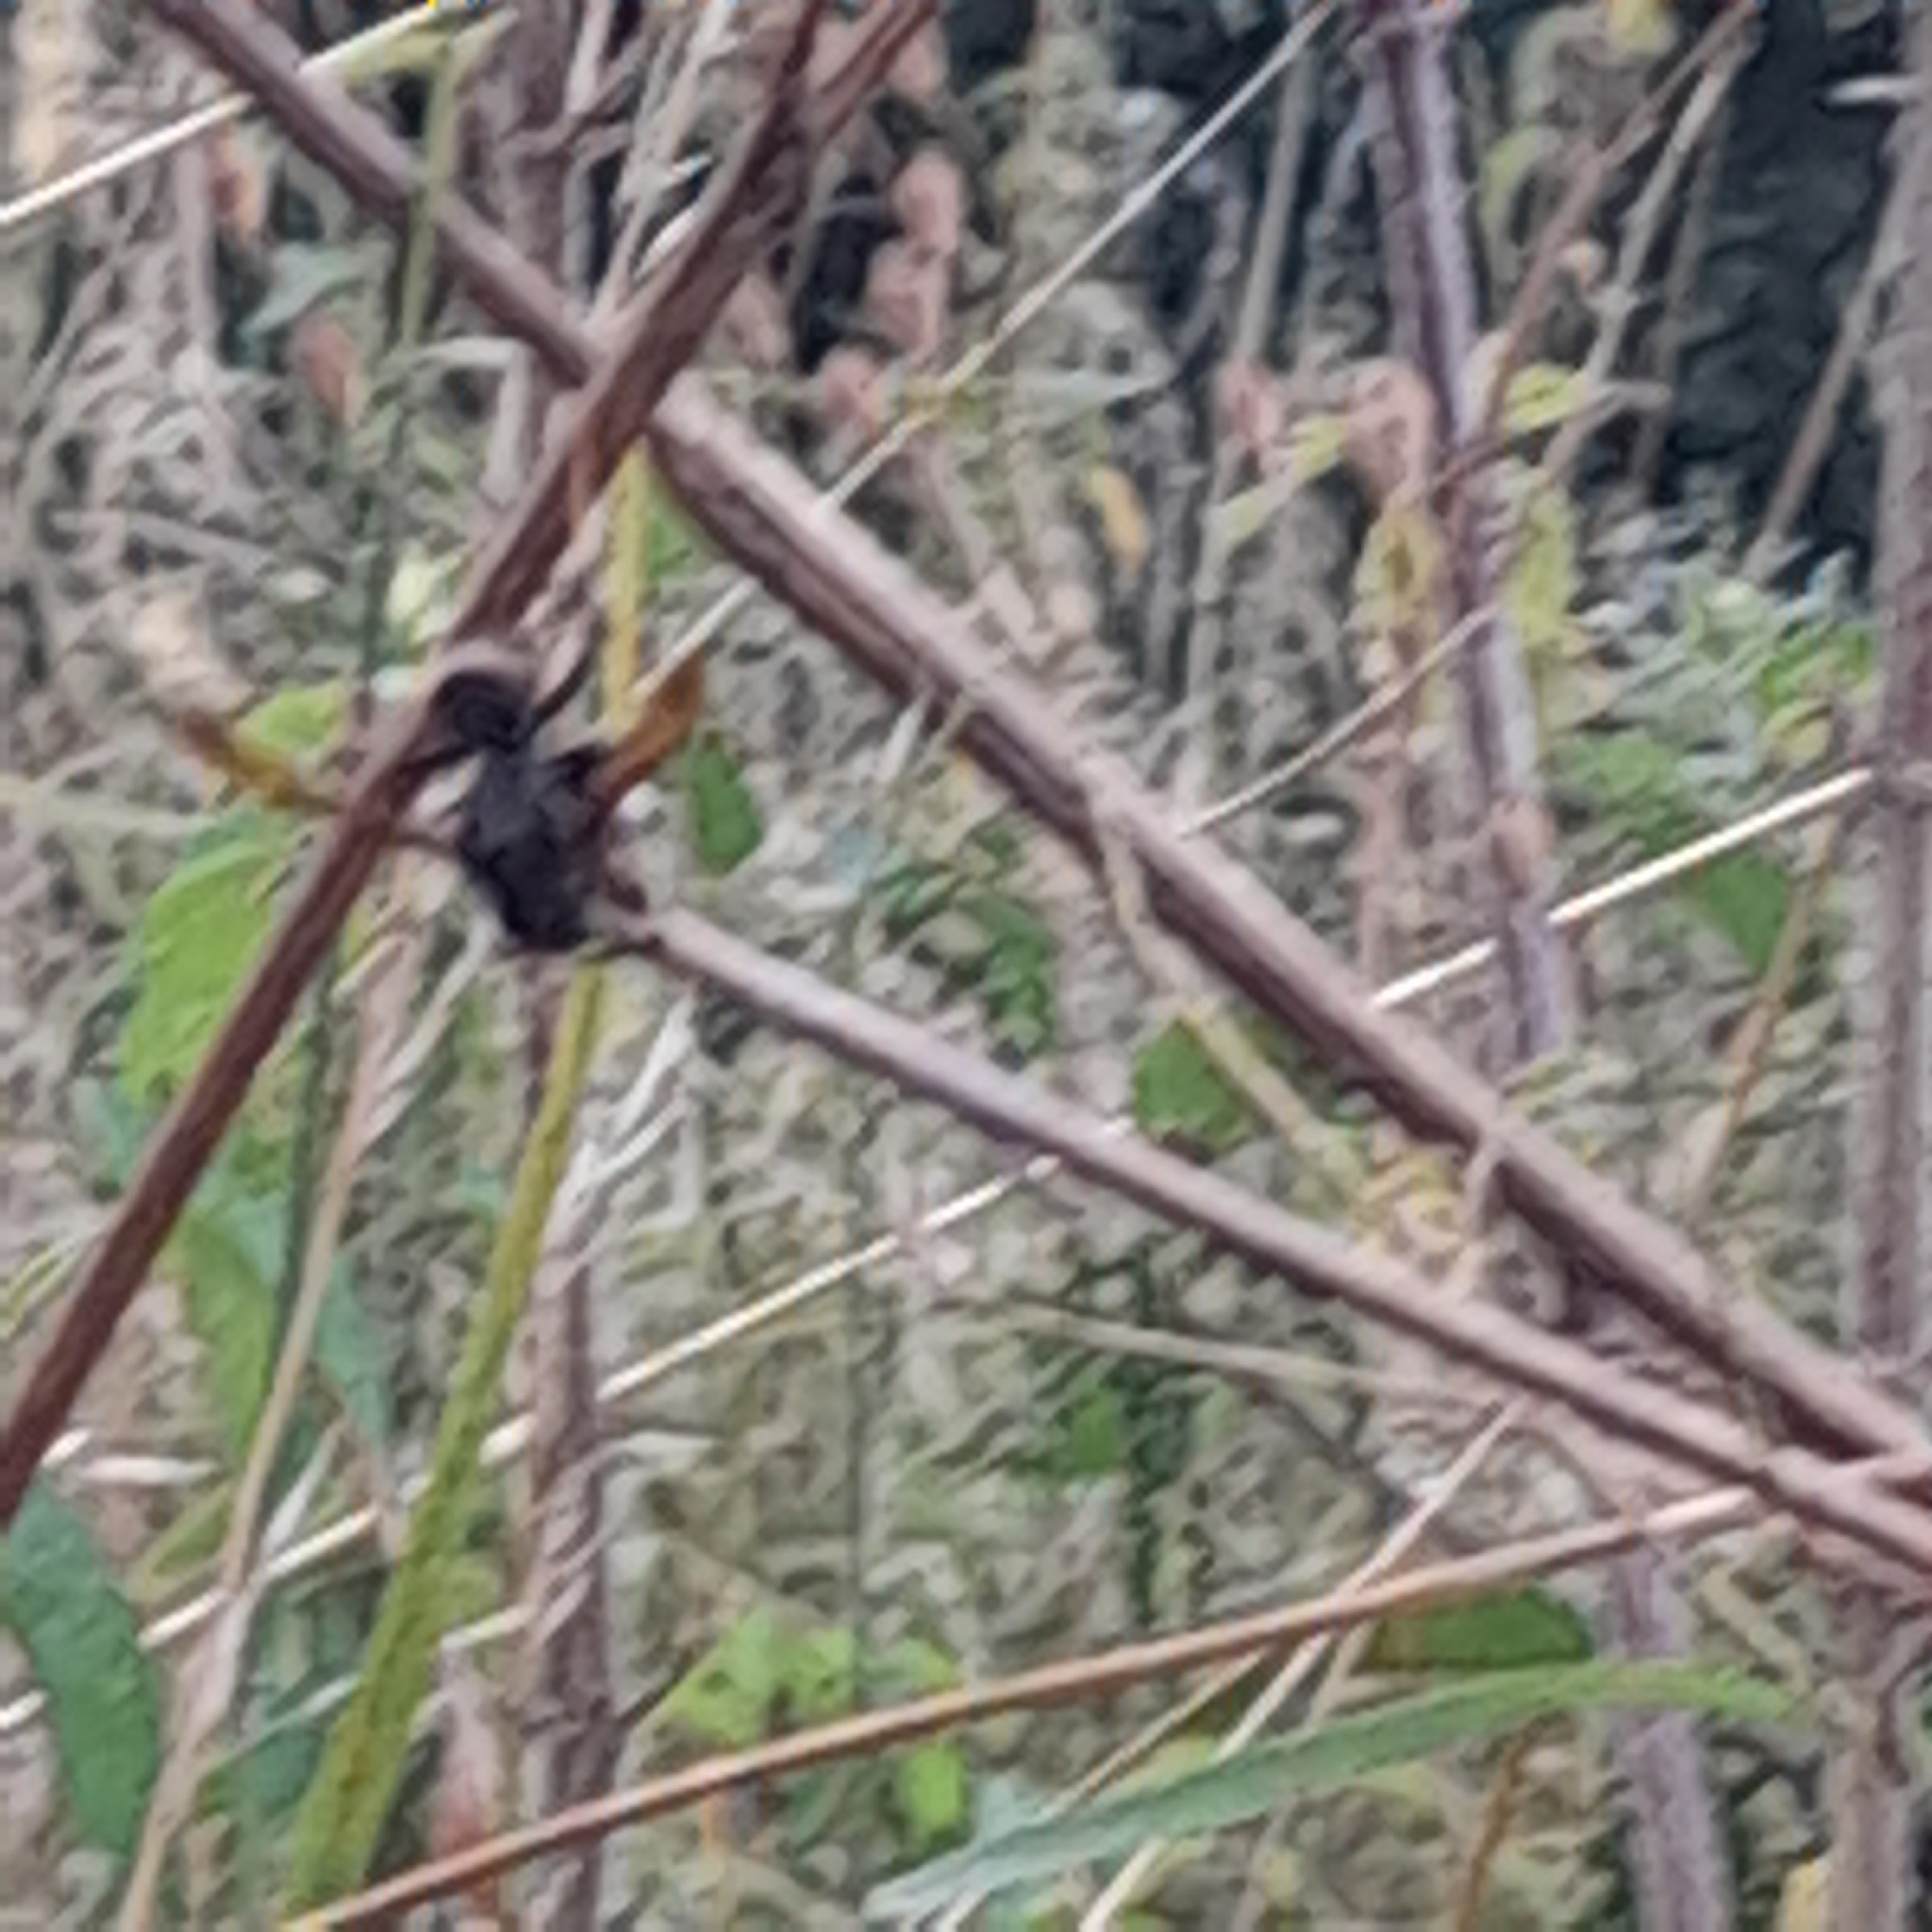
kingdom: Animalia
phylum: Arthropoda
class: Insecta
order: Hymenoptera
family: Vespidae
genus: Vespa
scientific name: Vespa velutina
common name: Asian hornet
